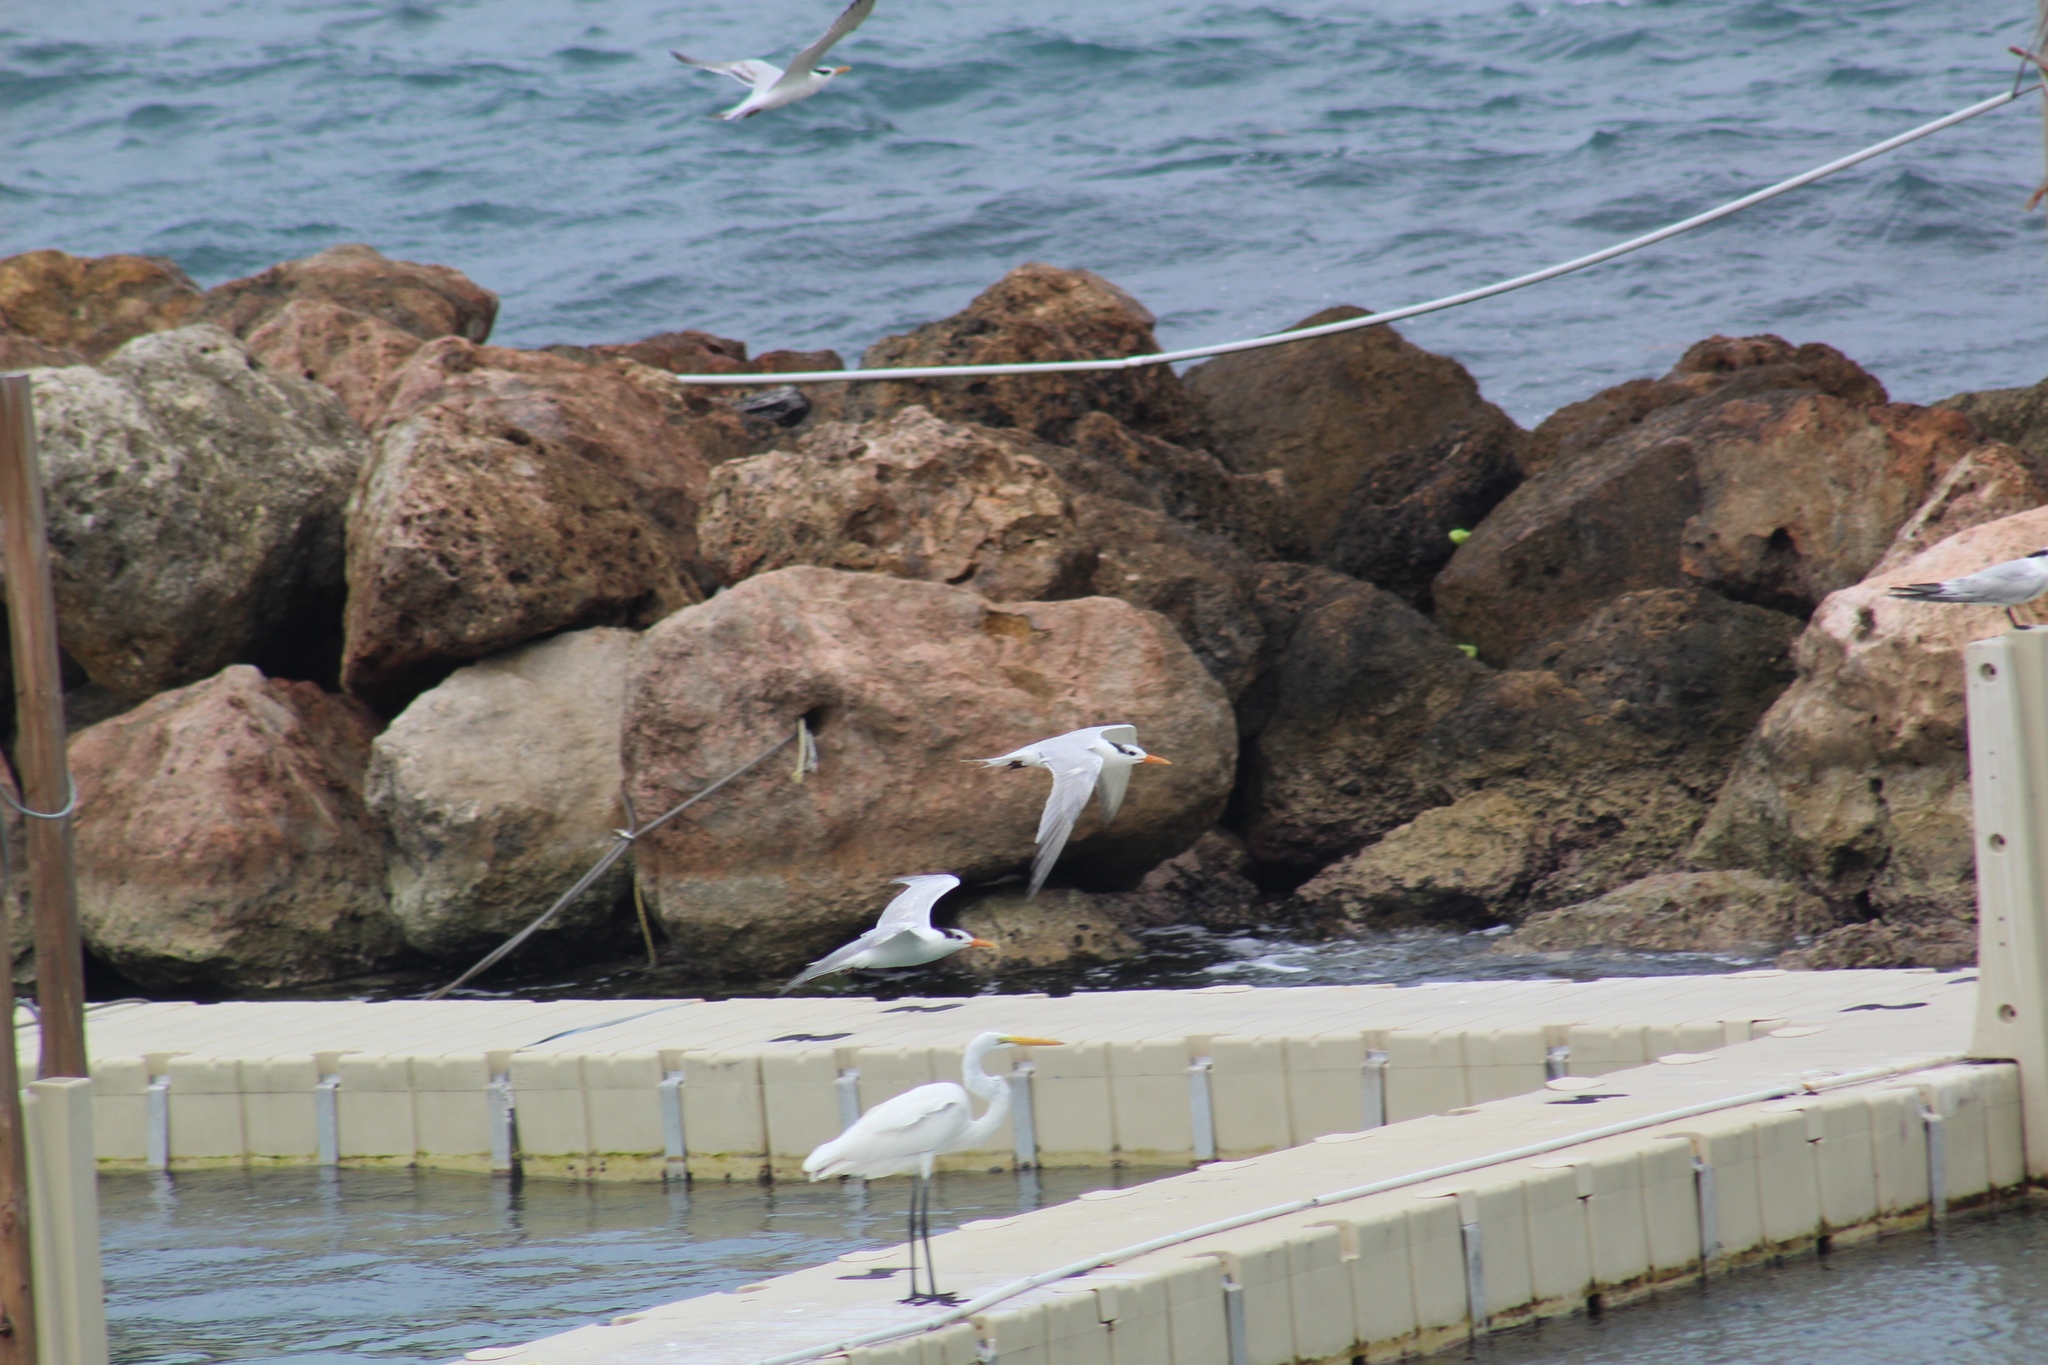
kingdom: Animalia
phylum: Chordata
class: Aves
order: Pelecaniformes
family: Ardeidae
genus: Ardea
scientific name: Ardea alba
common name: Great egret
